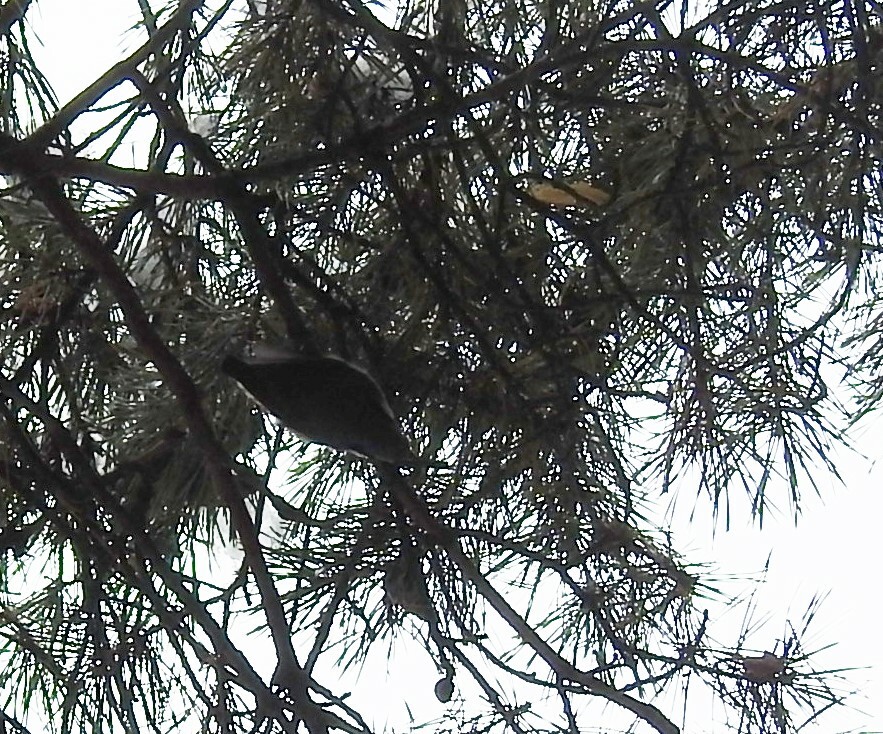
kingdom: Animalia
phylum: Chordata
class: Aves
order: Passeriformes
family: Sittidae
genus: Sitta
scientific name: Sitta europaea
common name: Eurasian nuthatch
